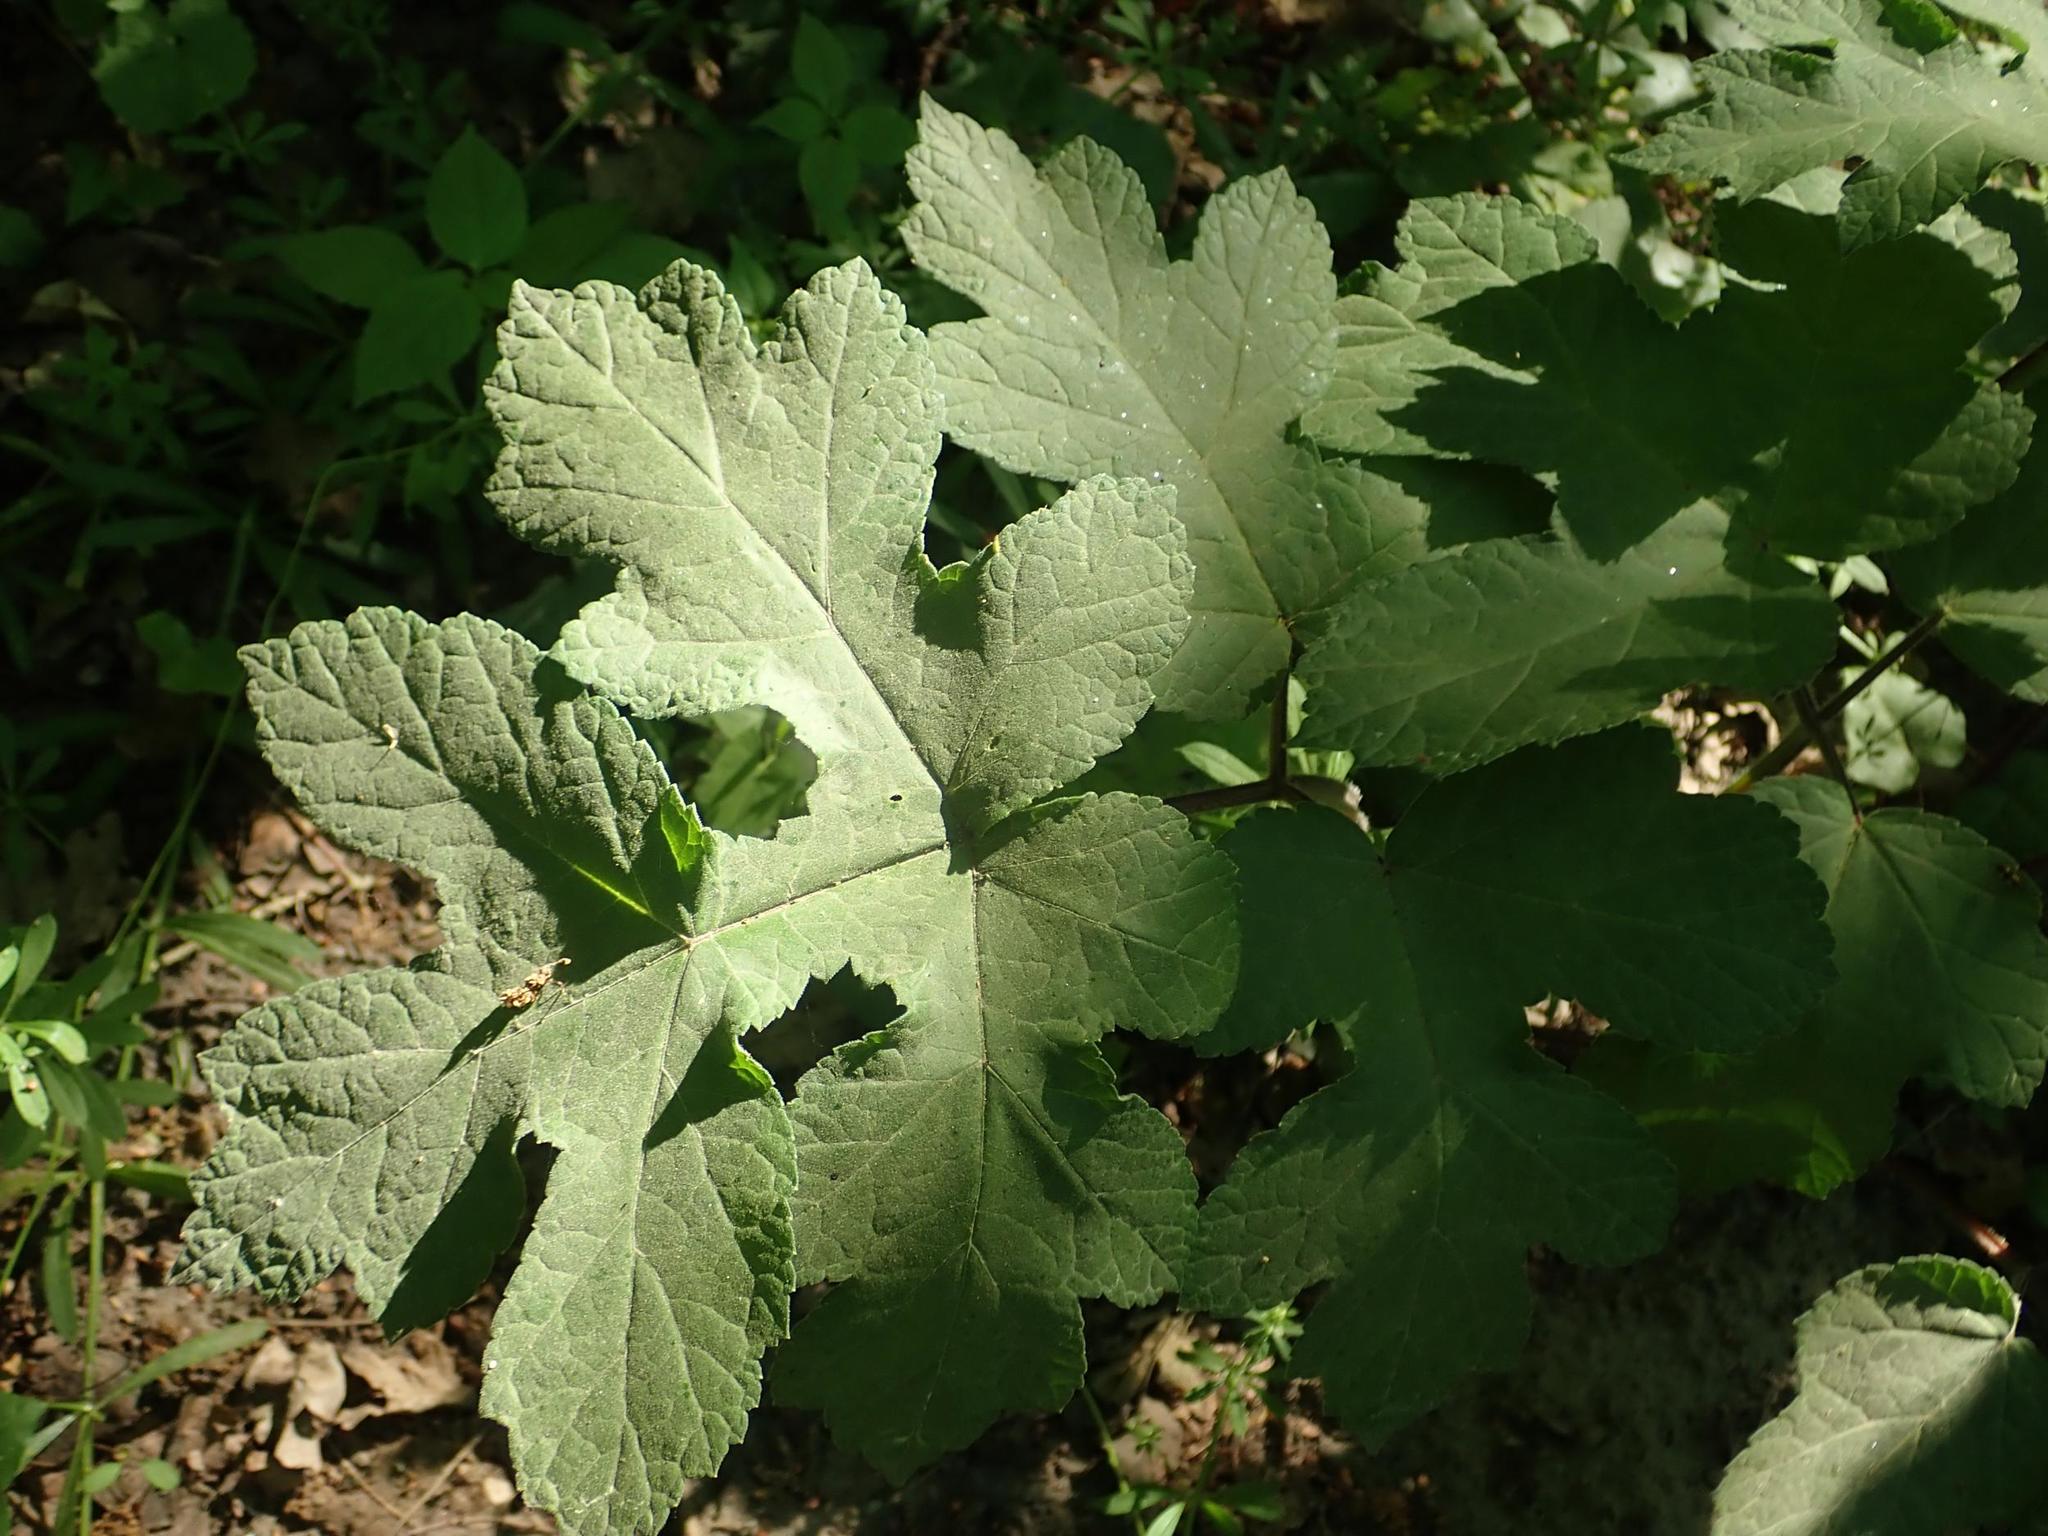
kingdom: Plantae
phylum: Tracheophyta
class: Magnoliopsida
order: Apiales
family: Apiaceae
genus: Heracleum
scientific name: Heracleum sphondylium
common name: Hogweed
